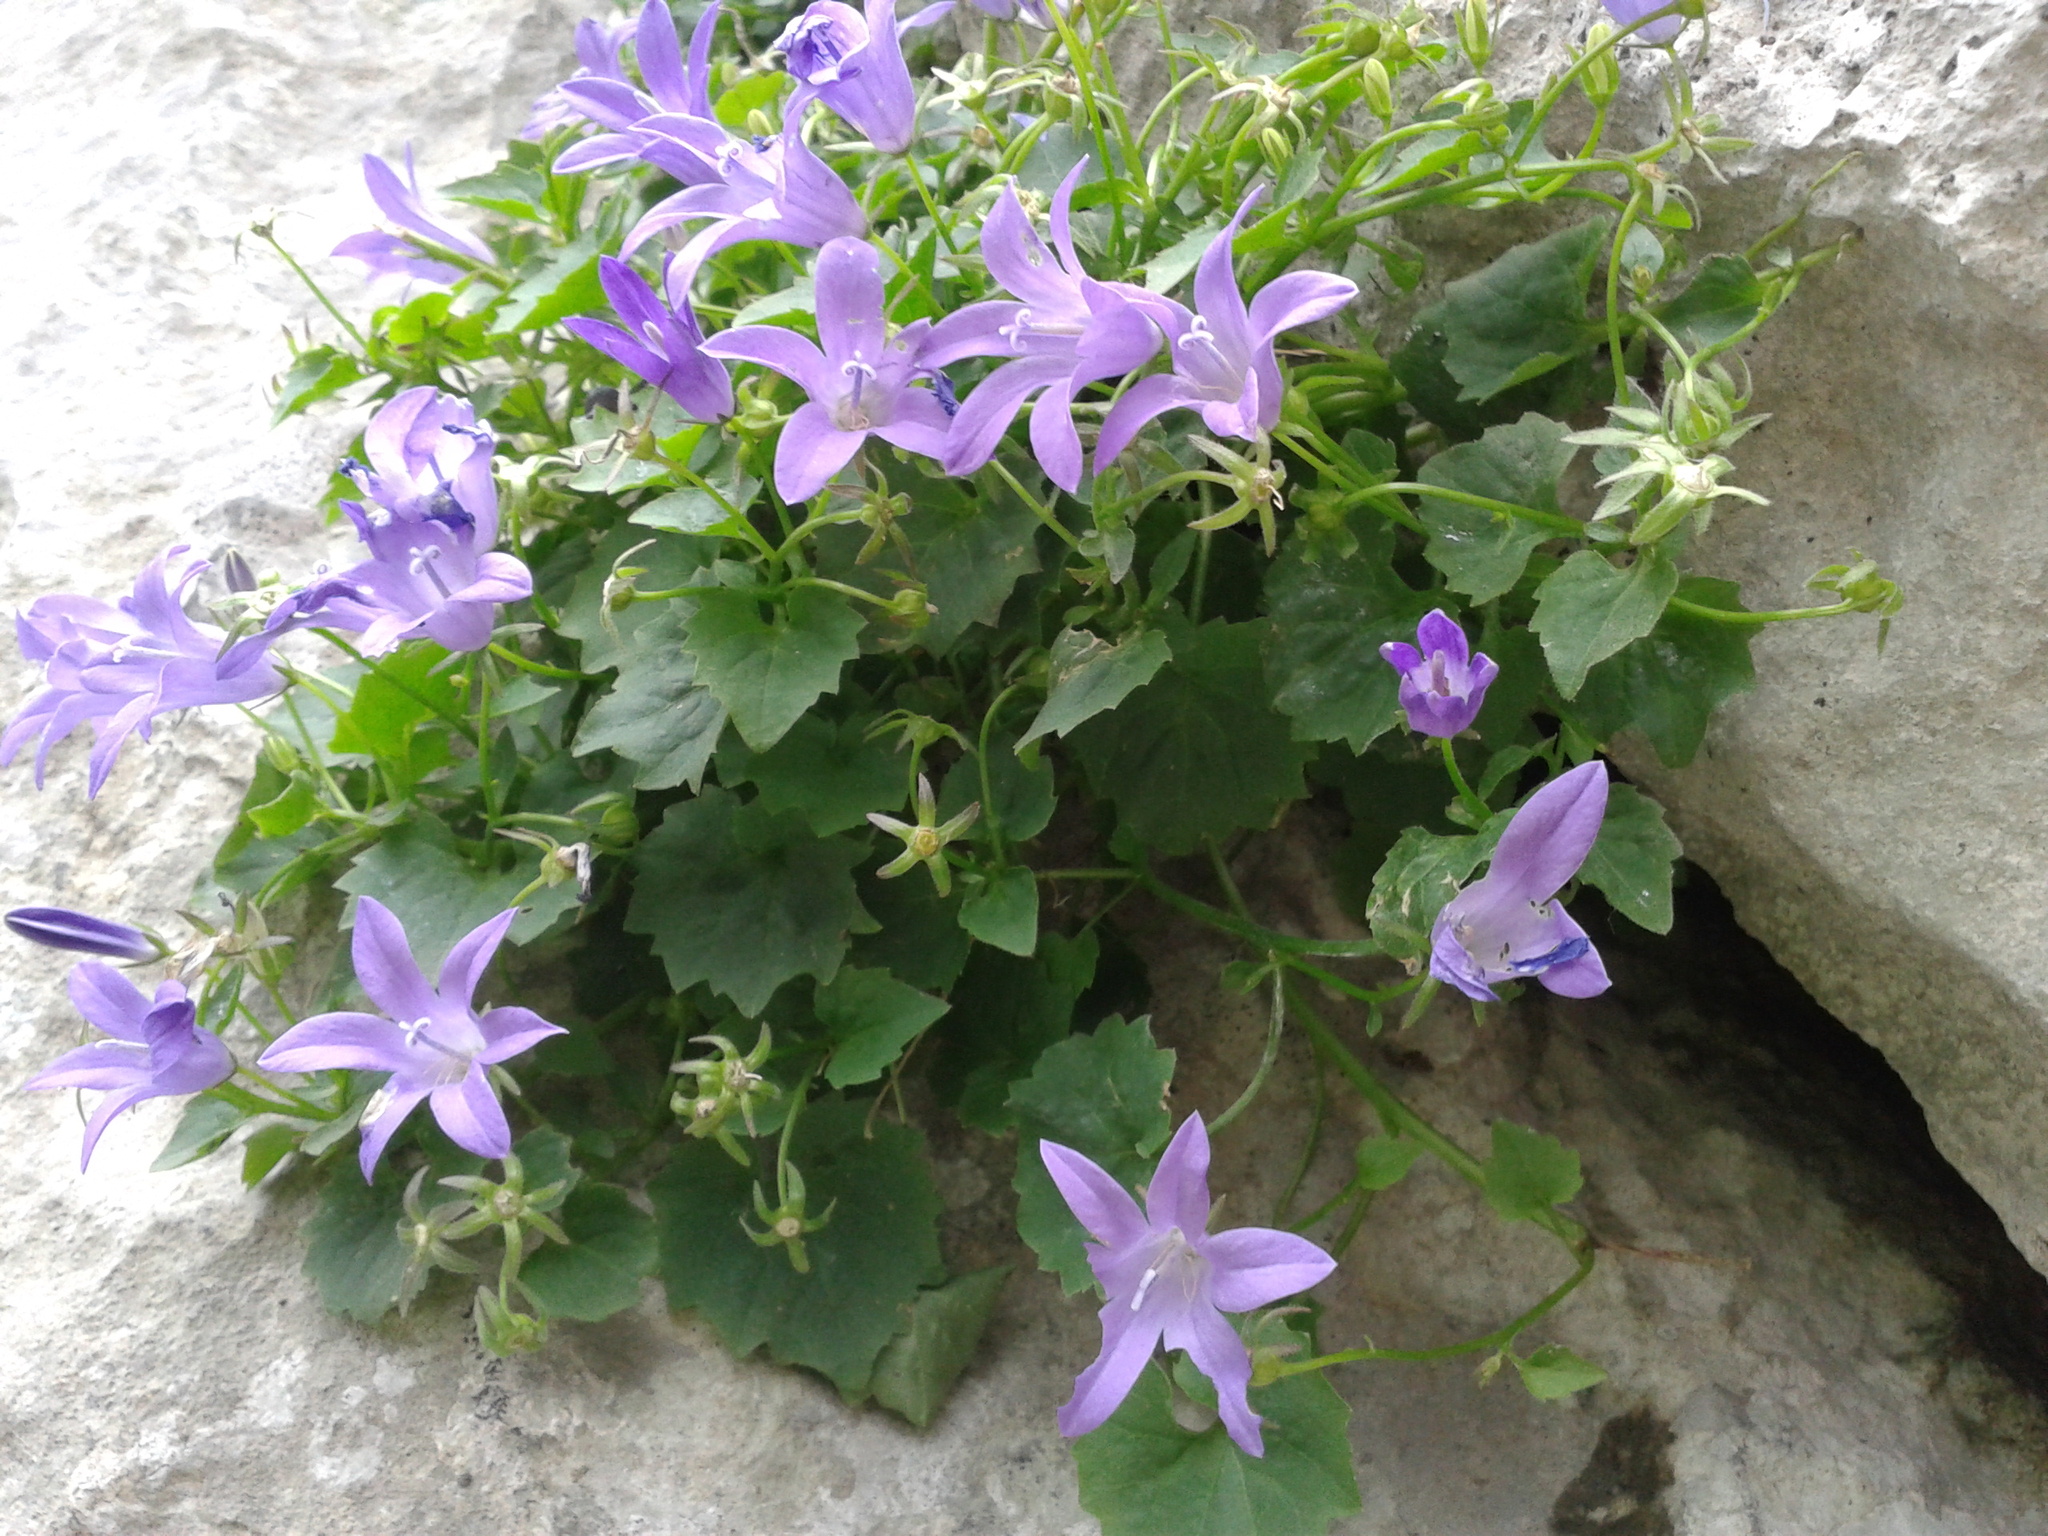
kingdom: Plantae
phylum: Tracheophyta
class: Magnoliopsida
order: Asterales
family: Campanulaceae
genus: Campanula
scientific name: Campanula portenschlagiana
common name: Adria bellflower
